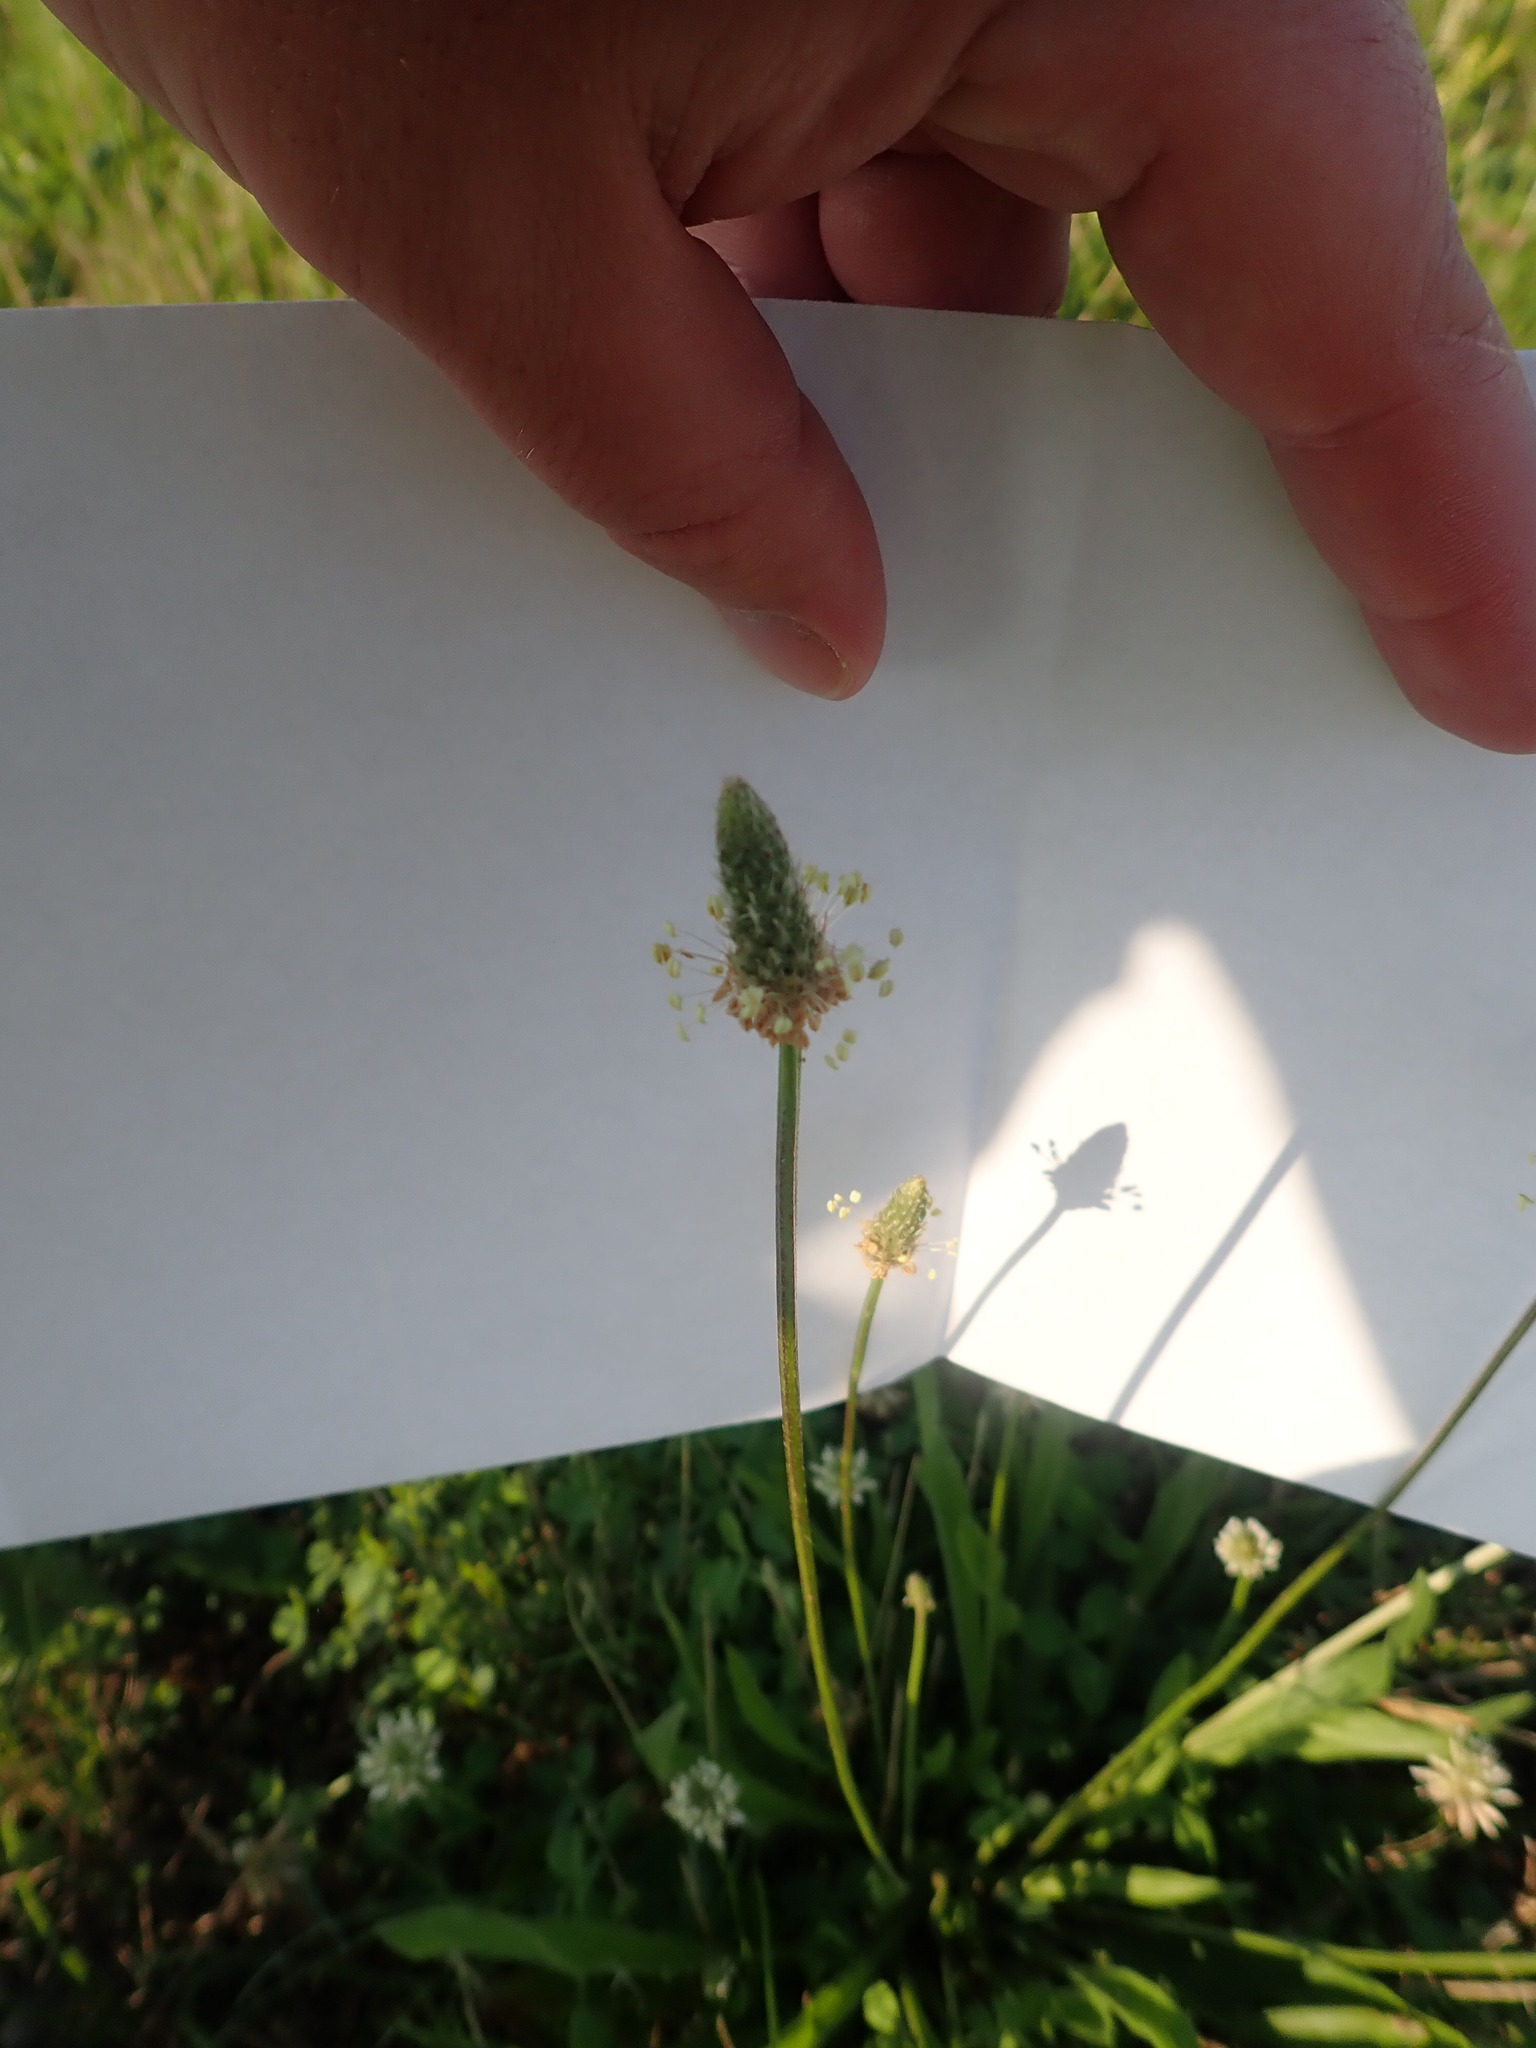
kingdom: Plantae
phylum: Tracheophyta
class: Magnoliopsida
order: Lamiales
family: Plantaginaceae
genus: Plantago
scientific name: Plantago lanceolata
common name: Ribwort plantain
